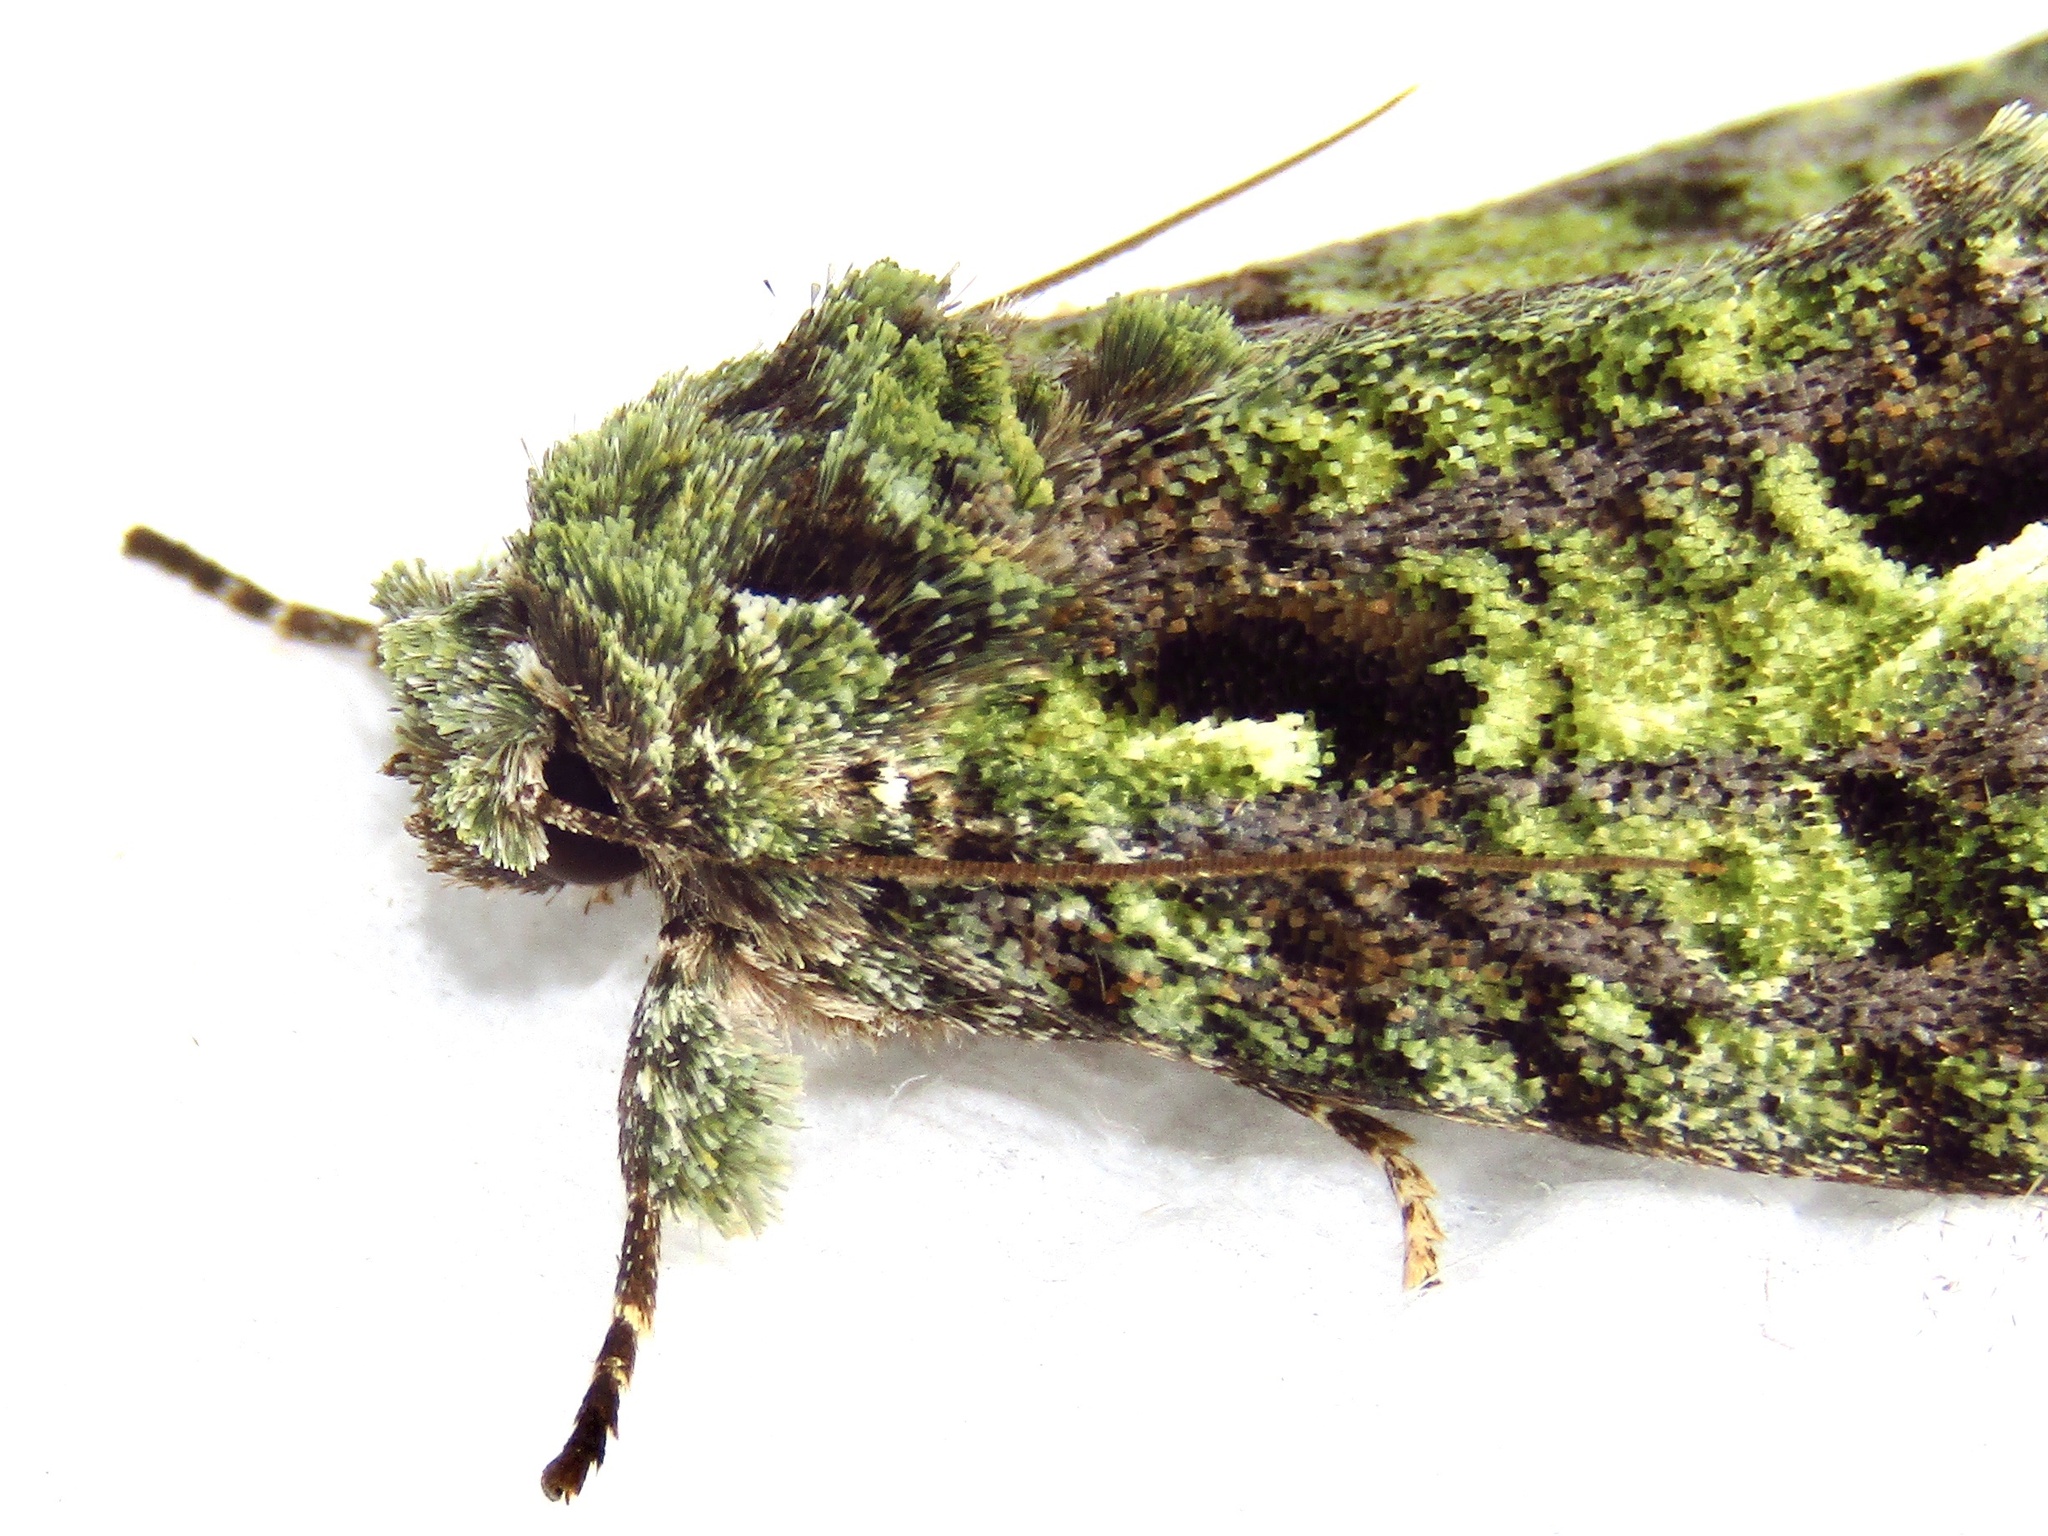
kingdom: Animalia
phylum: Arthropoda
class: Insecta
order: Lepidoptera
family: Notodontidae
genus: Cascera
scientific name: Cascera muscosa
